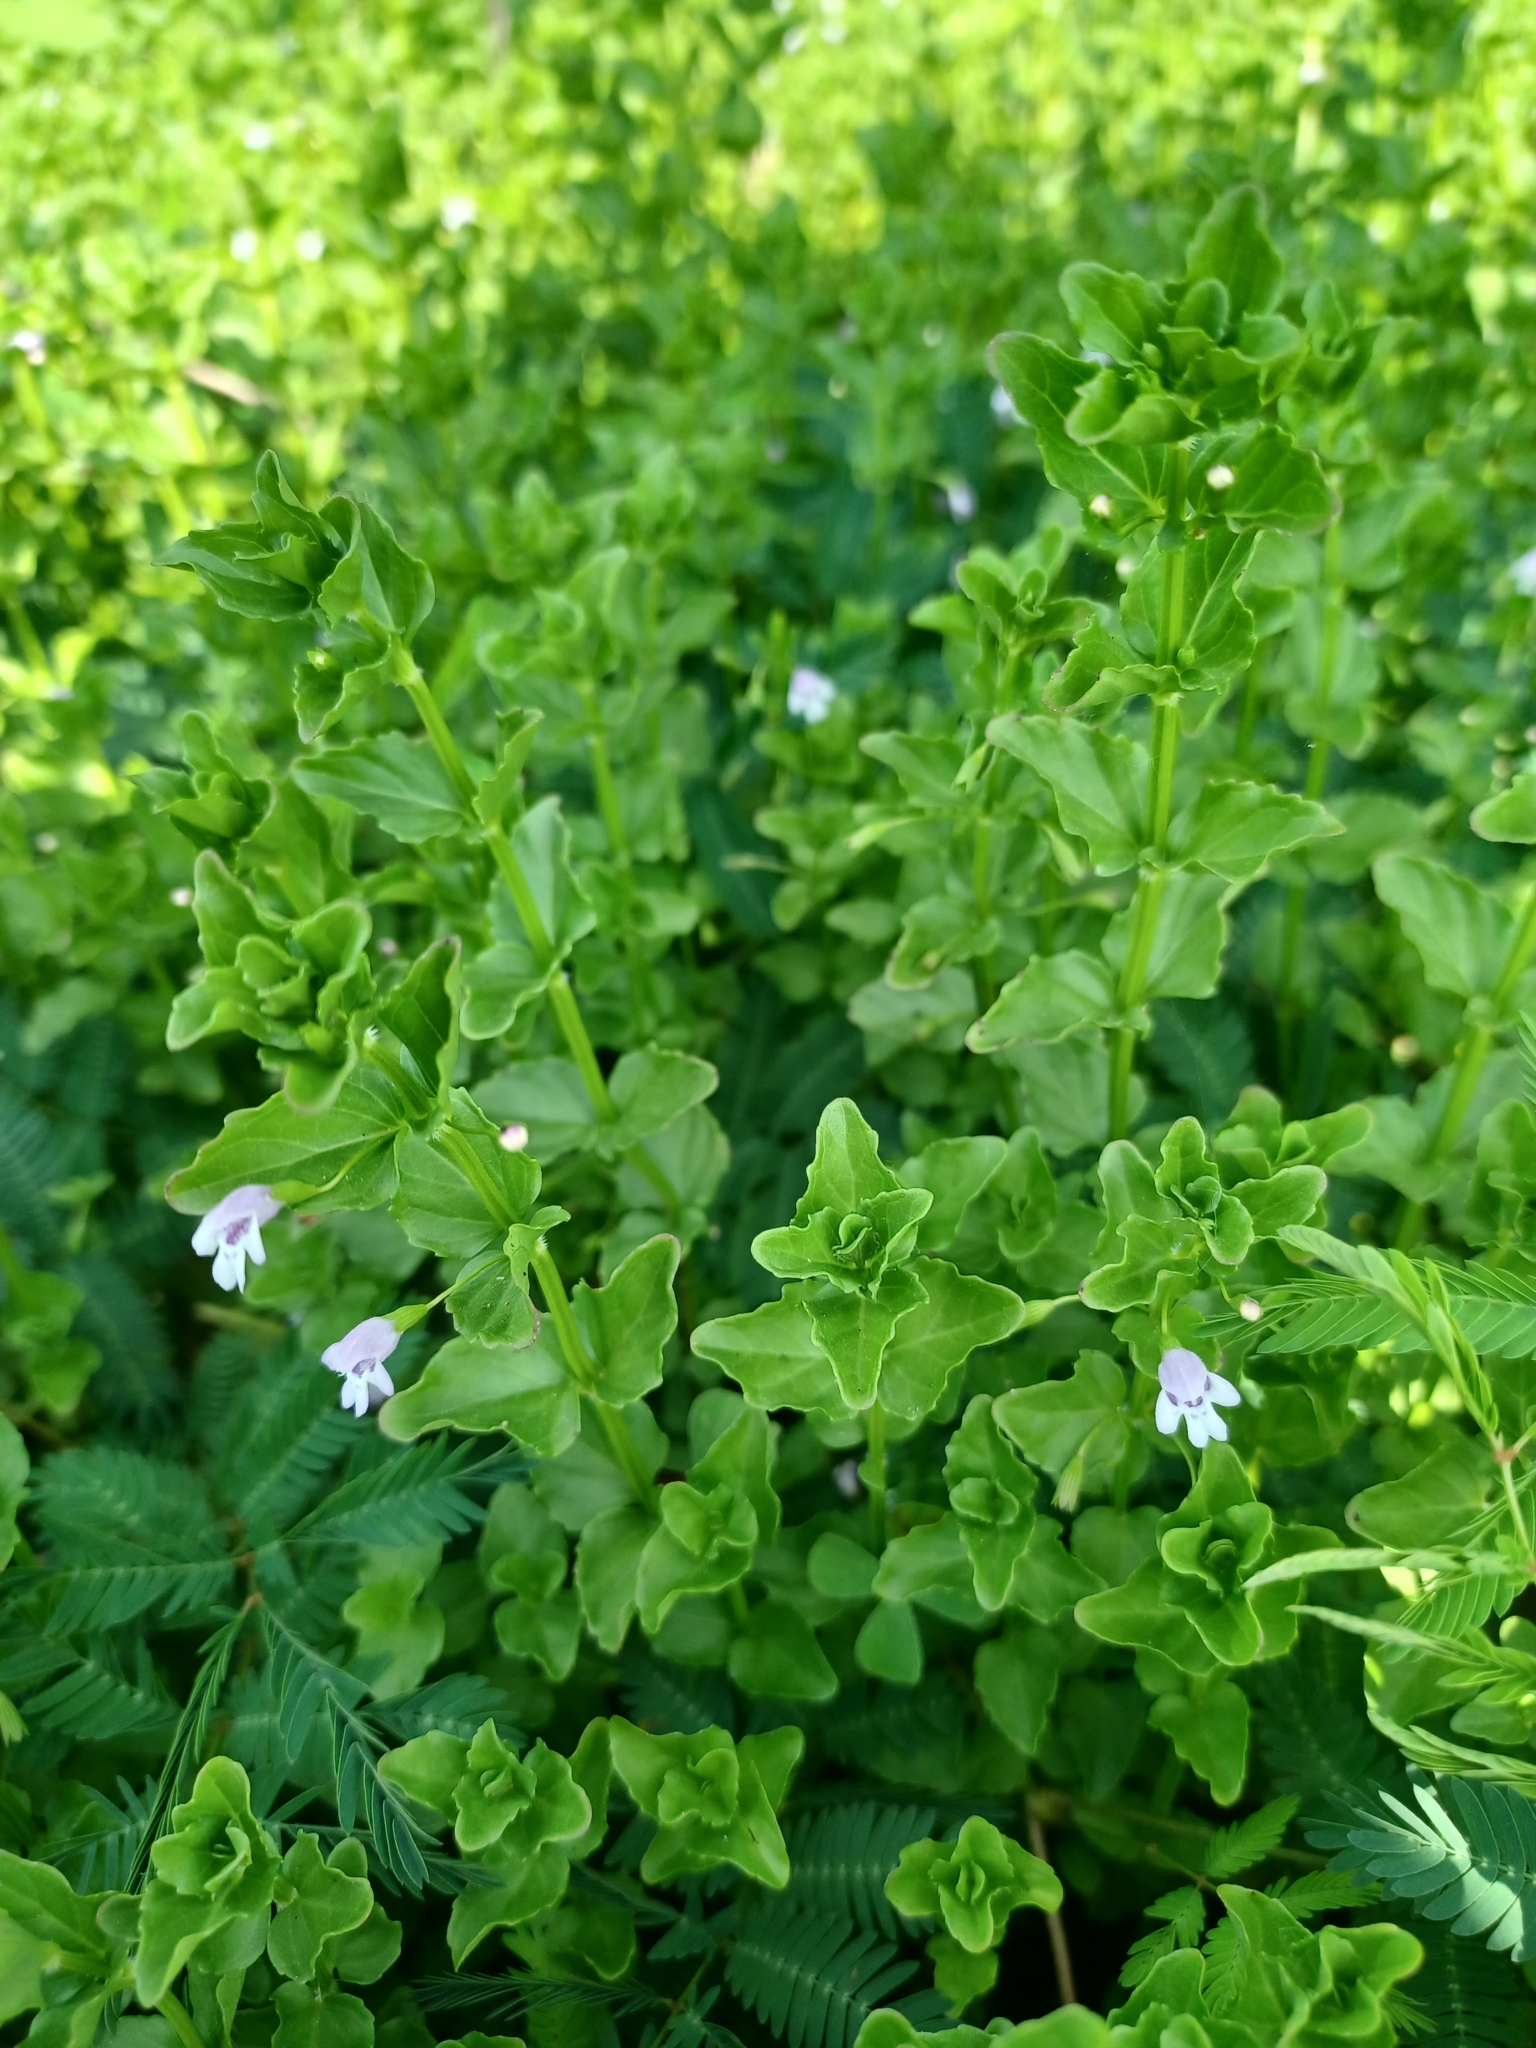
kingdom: Plantae
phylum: Tracheophyta
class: Magnoliopsida
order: Lamiales
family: Lamiaceae
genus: Clinopodium
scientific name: Clinopodium brownei
